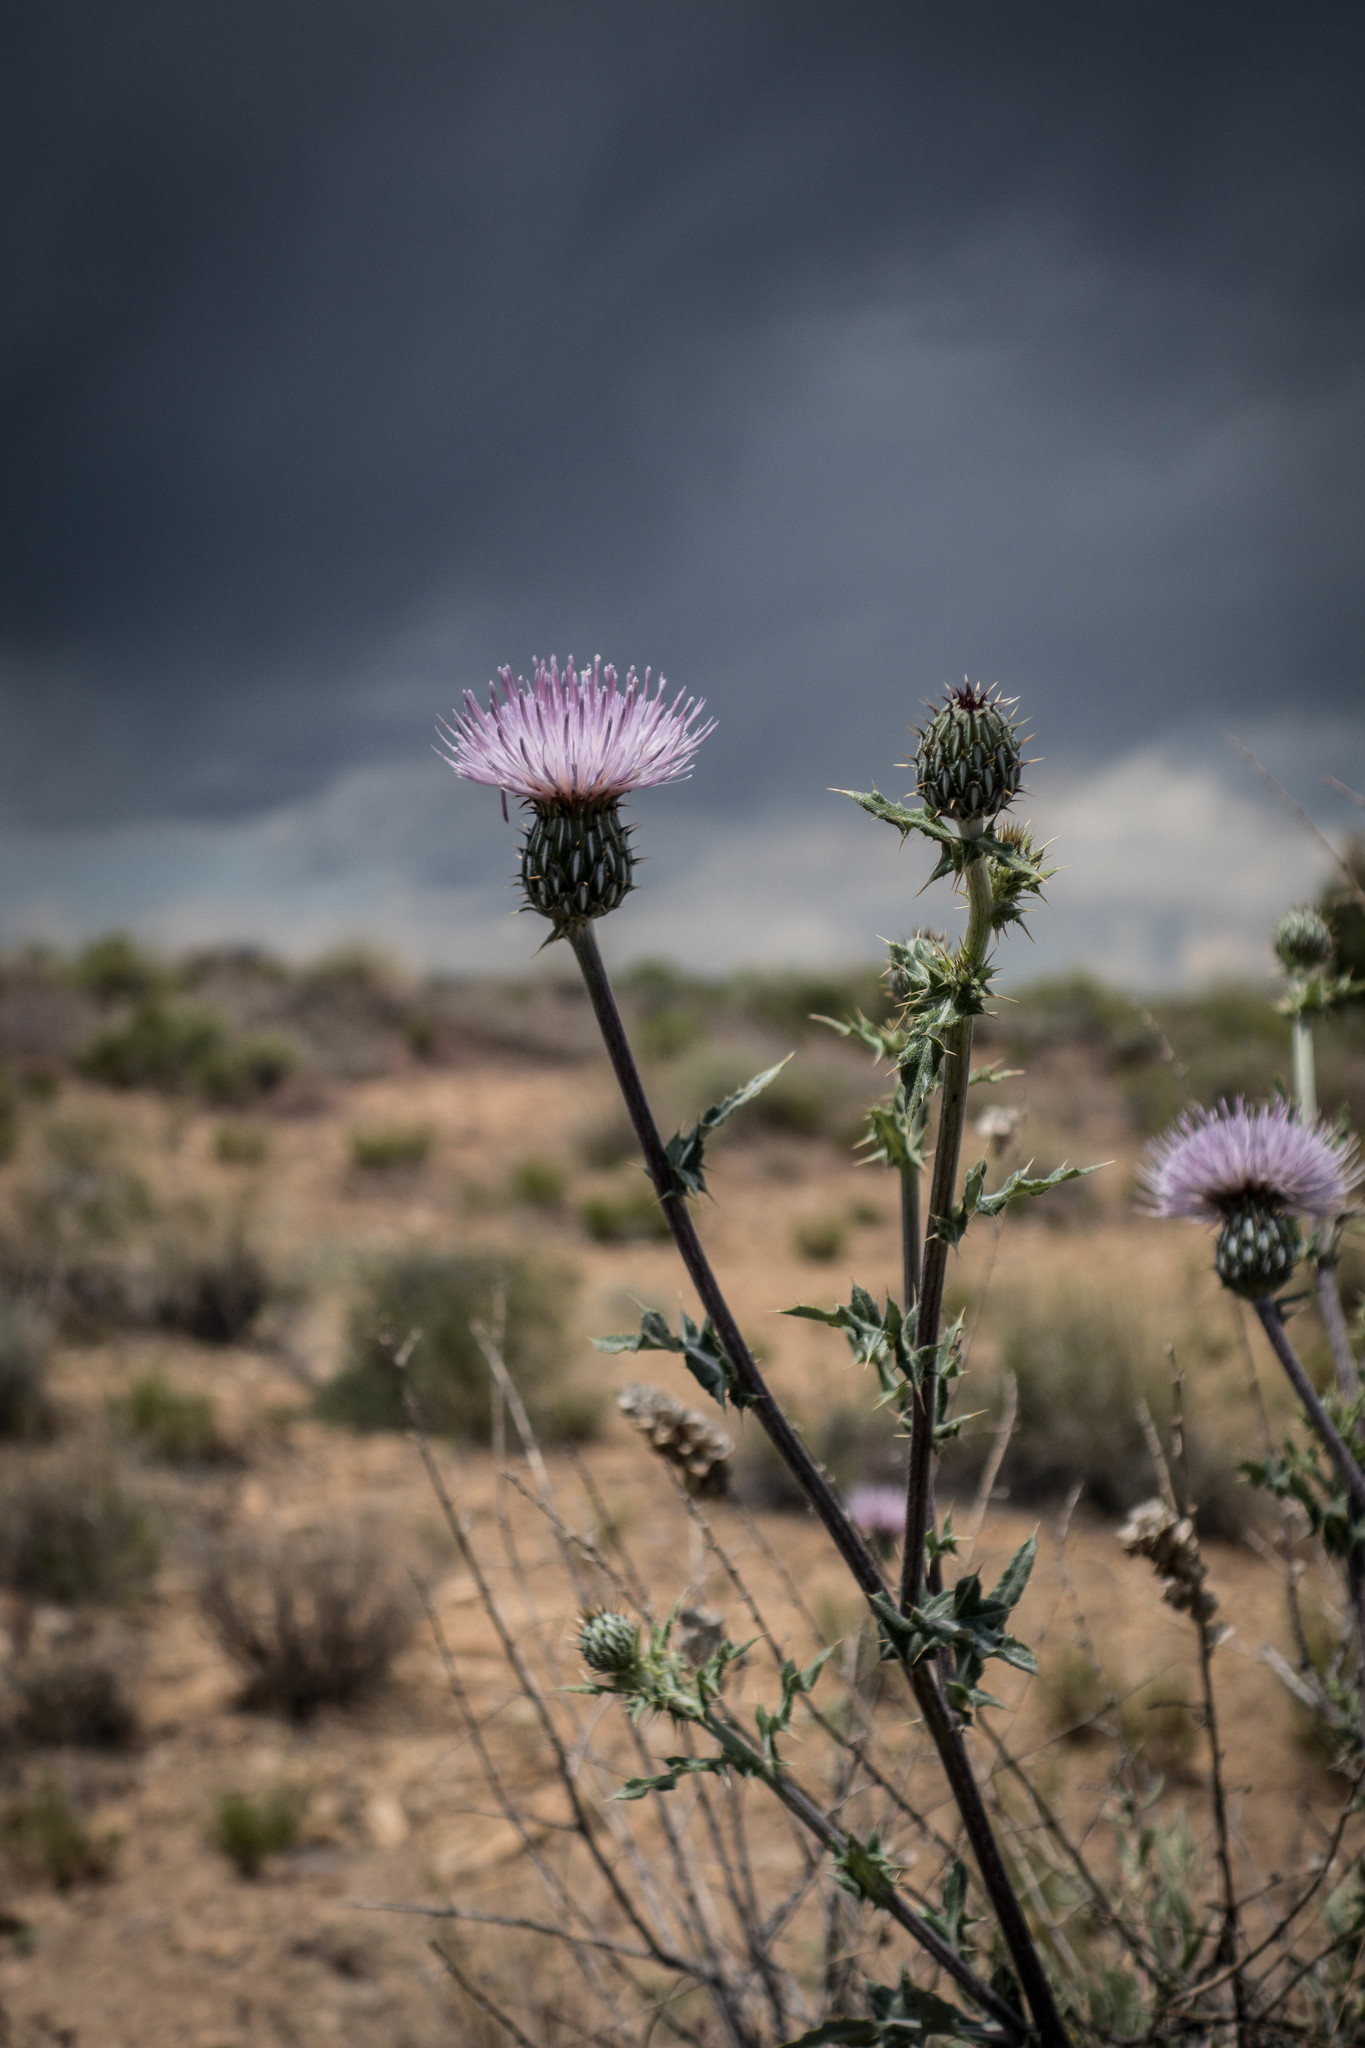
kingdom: Plantae
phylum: Tracheophyta
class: Magnoliopsida
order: Asterales
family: Asteraceae
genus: Cirsium
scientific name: Cirsium undulatum
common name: Pasture thistle
